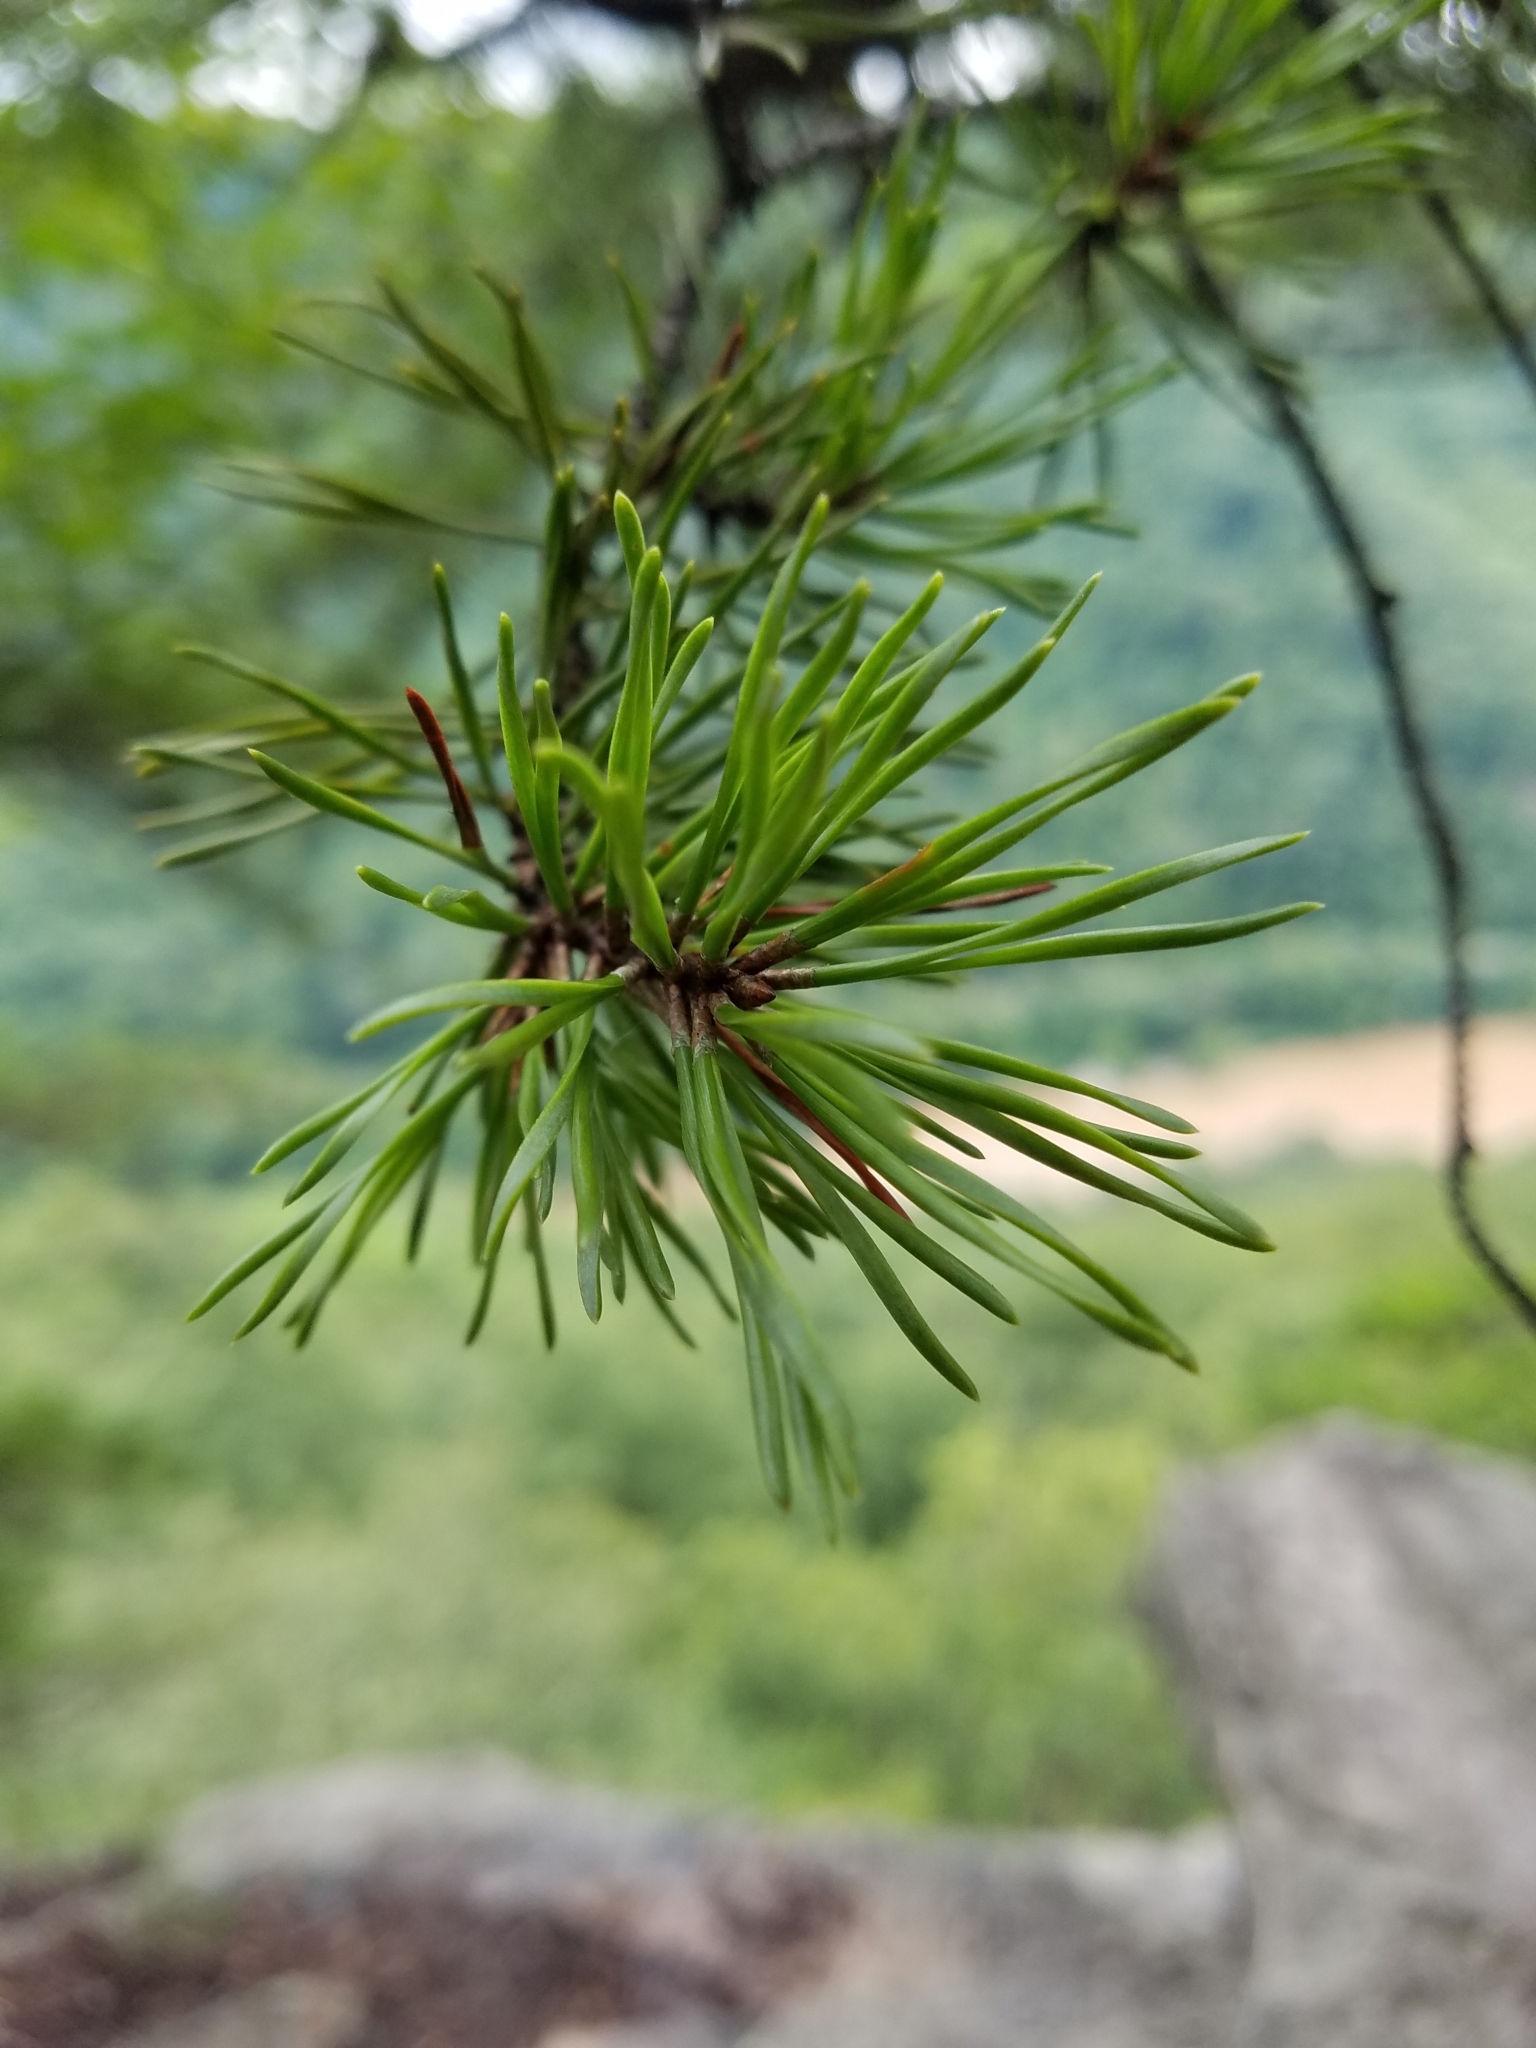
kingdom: Plantae
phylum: Tracheophyta
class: Pinopsida
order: Pinales
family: Pinaceae
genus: Pinus
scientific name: Pinus virginiana
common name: Scrub pine
